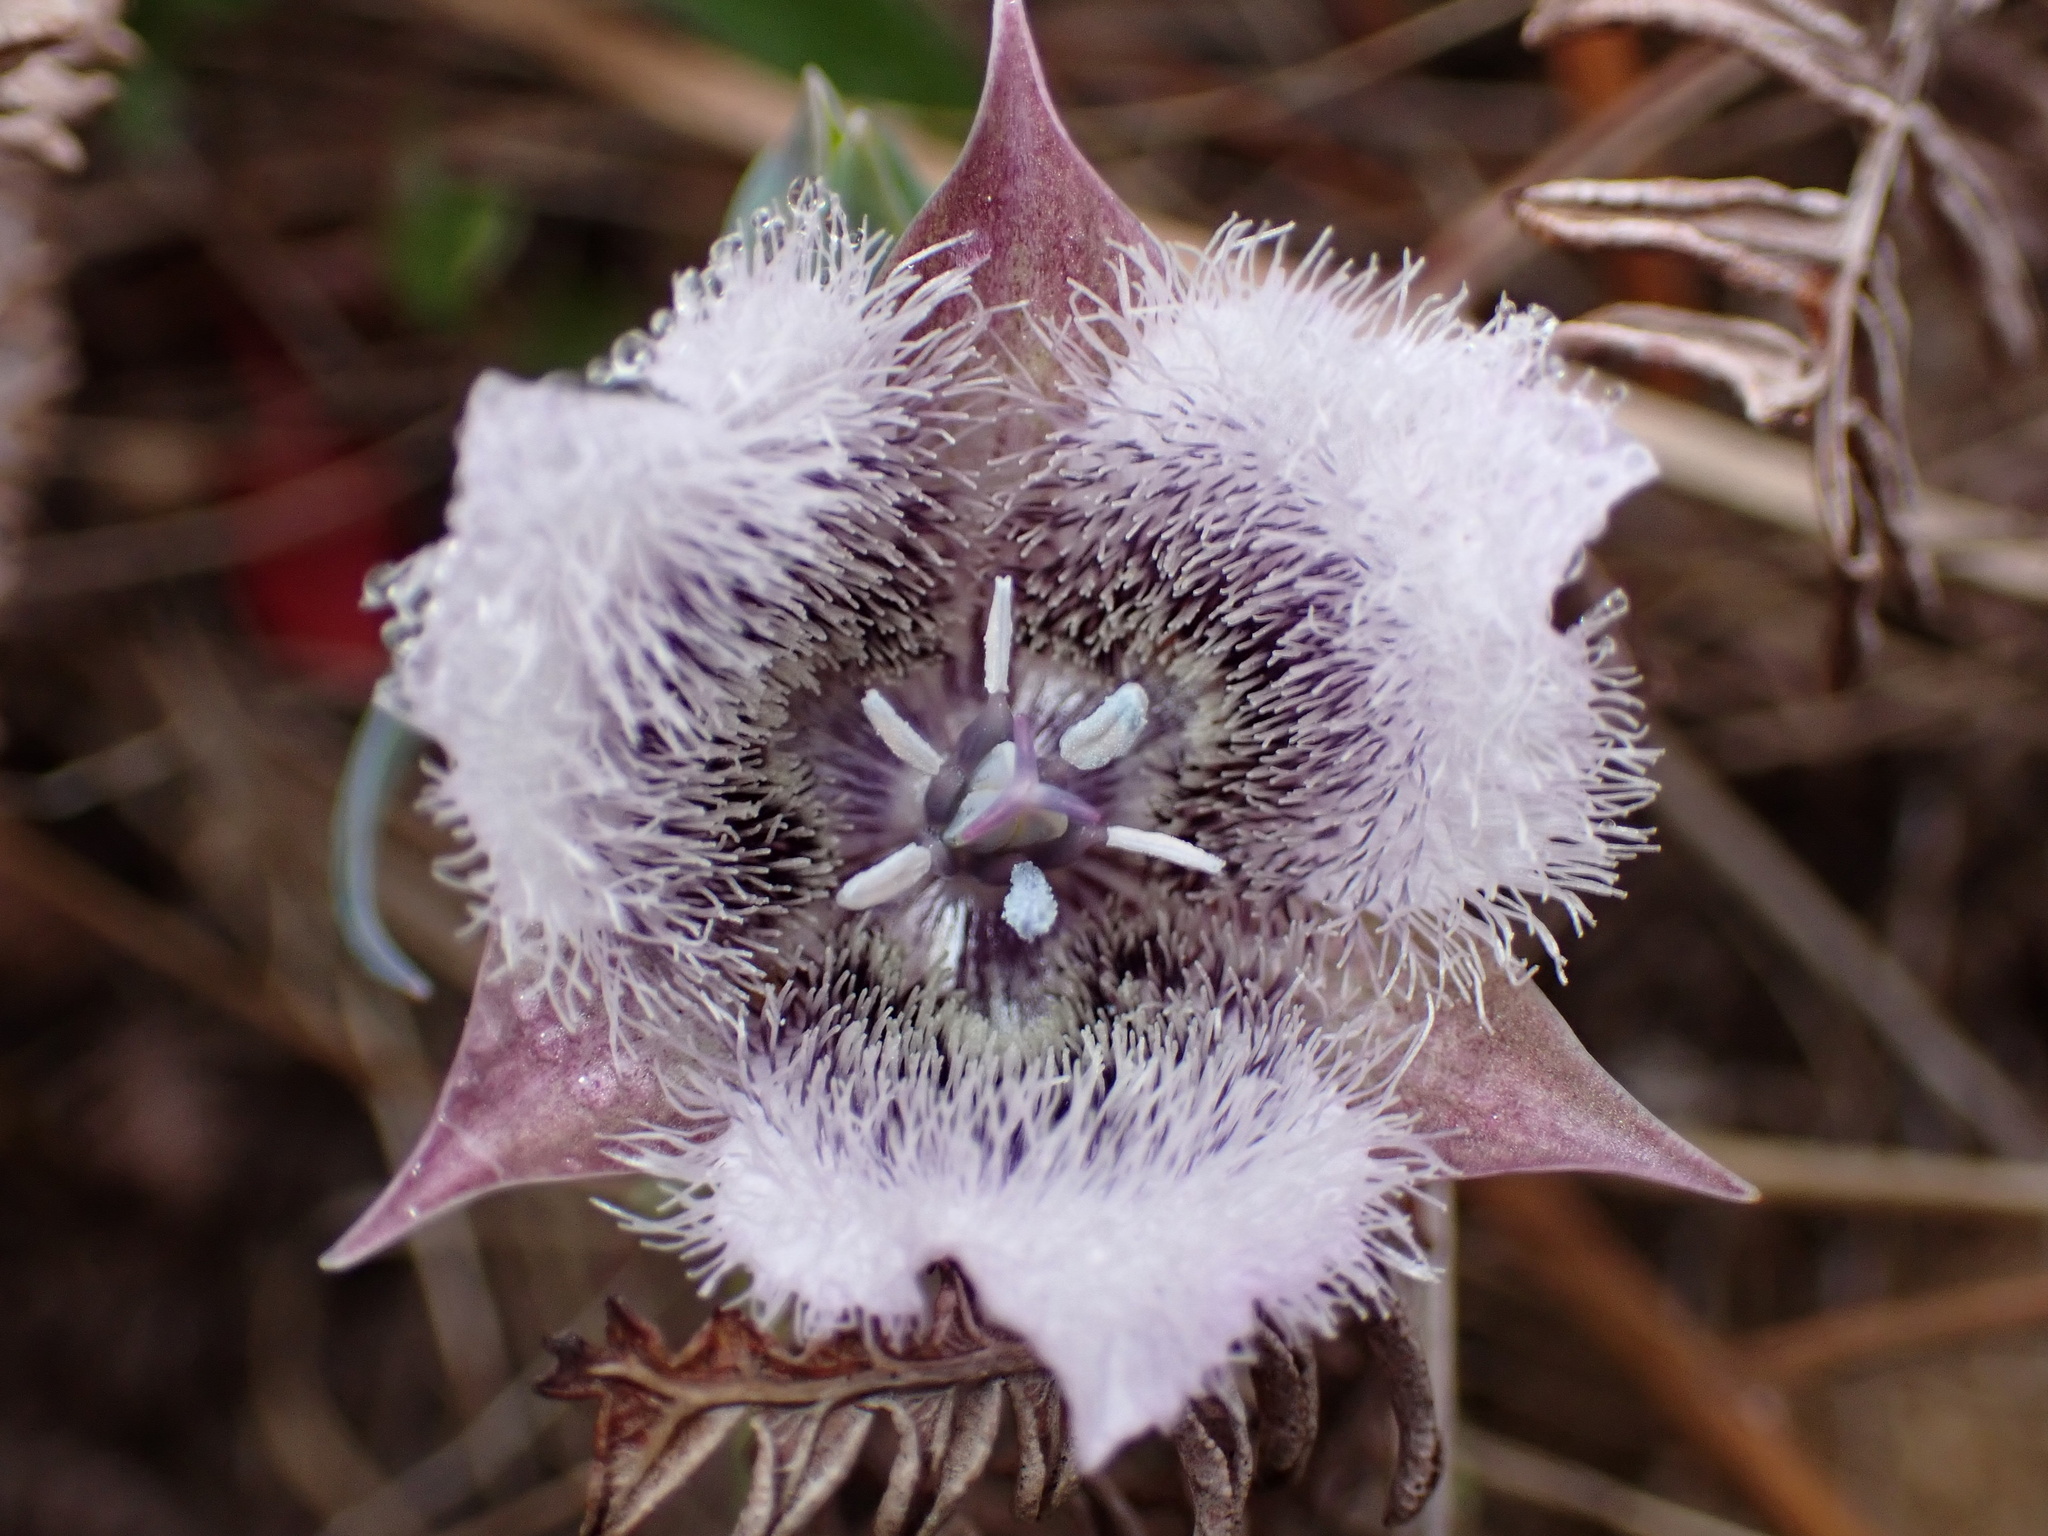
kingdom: Plantae
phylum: Tracheophyta
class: Liliopsida
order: Liliales
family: Liliaceae
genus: Calochortus
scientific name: Calochortus tolmiei
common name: Pussy-ears
